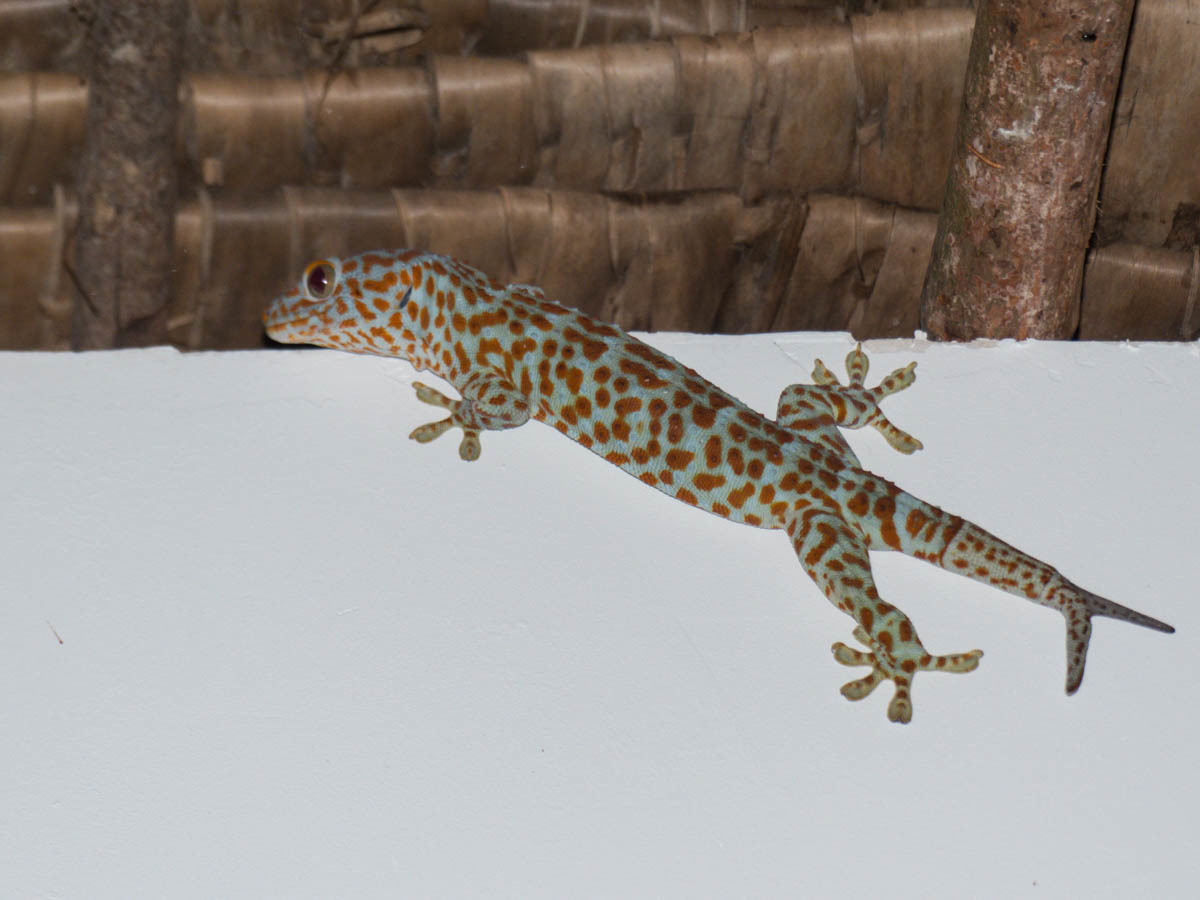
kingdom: Animalia
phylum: Chordata
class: Squamata
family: Gekkonidae
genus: Gekko
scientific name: Gekko gecko
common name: Tokay gecko
